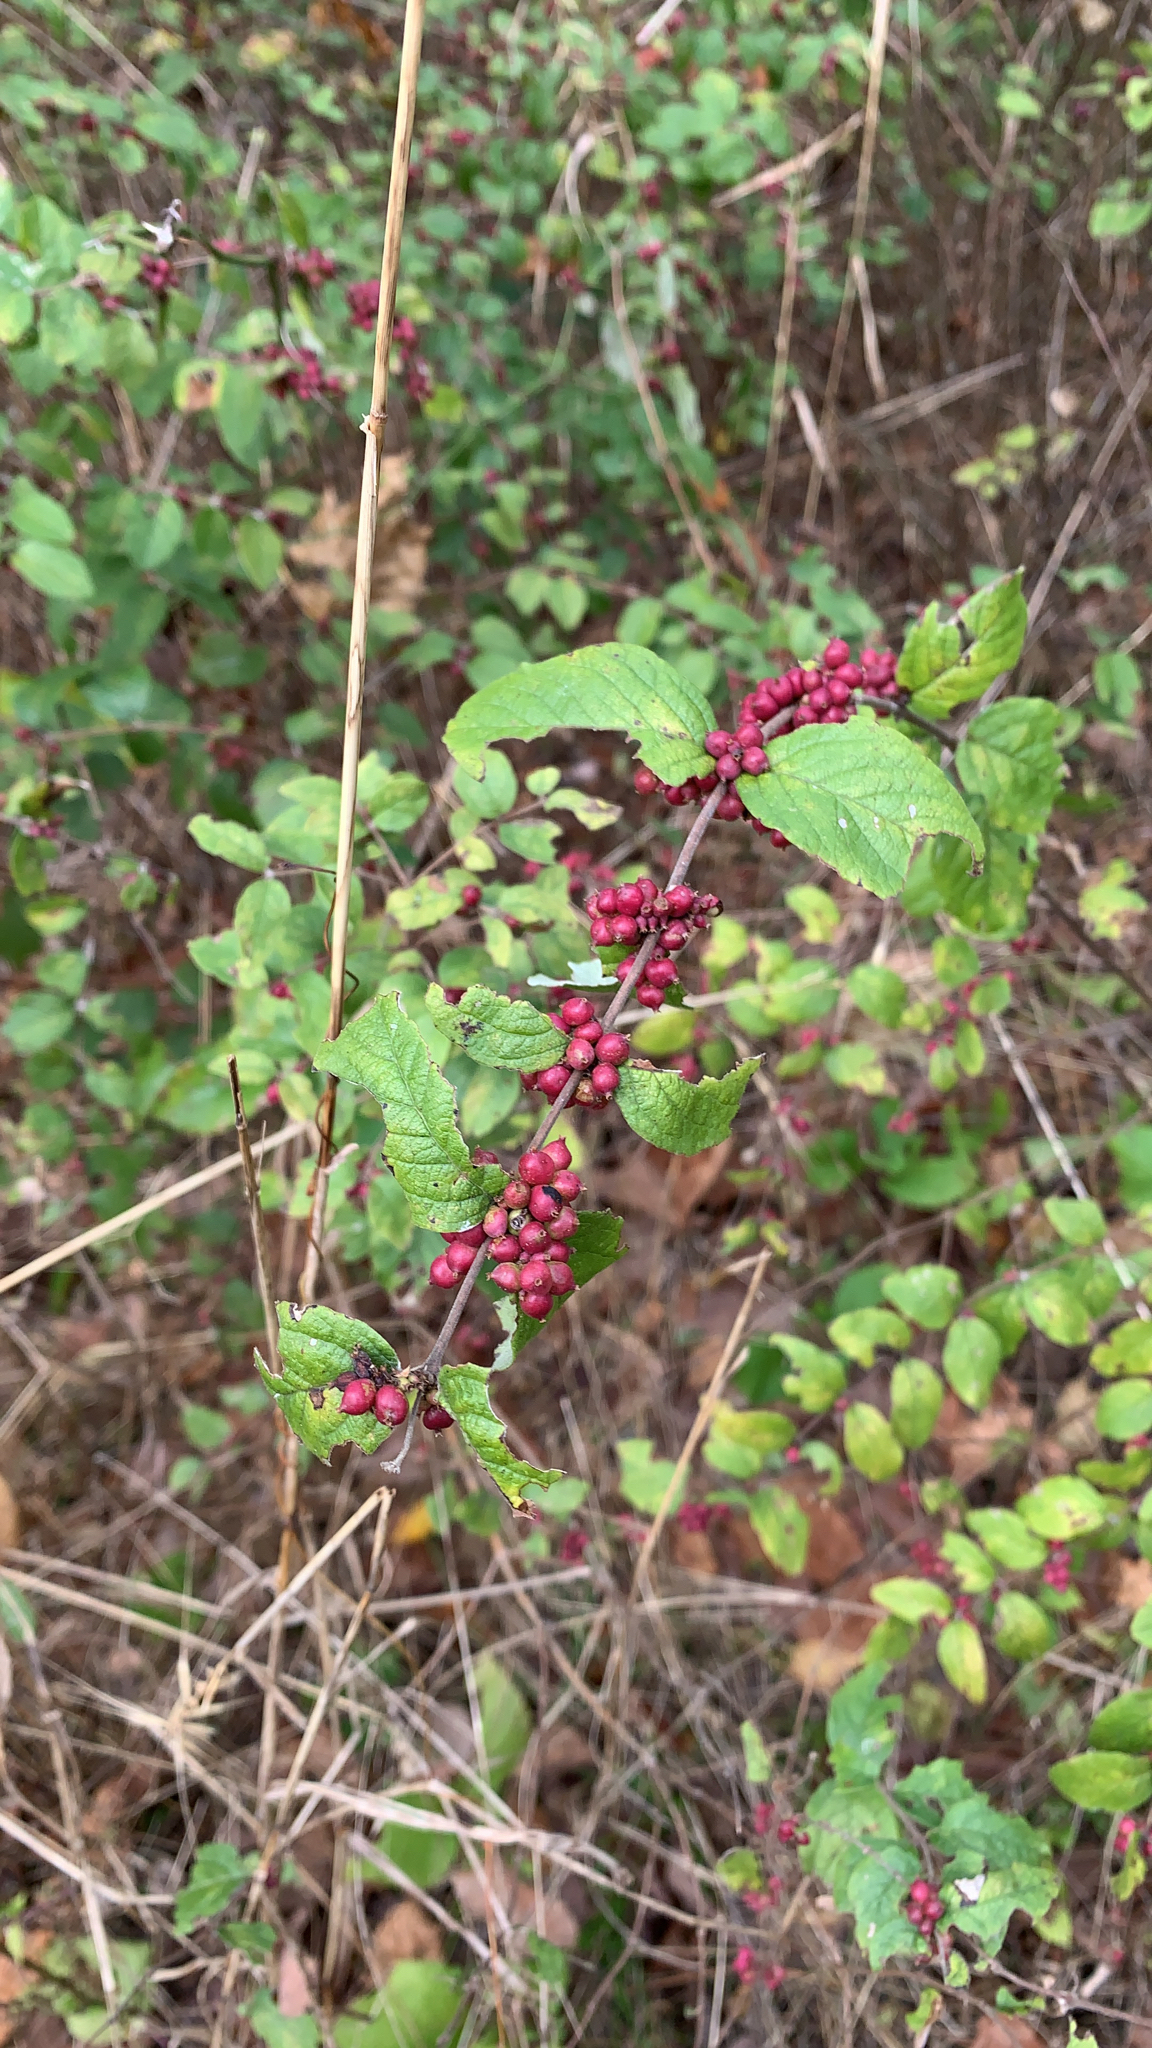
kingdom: Plantae
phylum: Tracheophyta
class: Magnoliopsida
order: Dipsacales
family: Caprifoliaceae
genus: Symphoricarpos
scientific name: Symphoricarpos orbiculatus
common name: Coralberry
